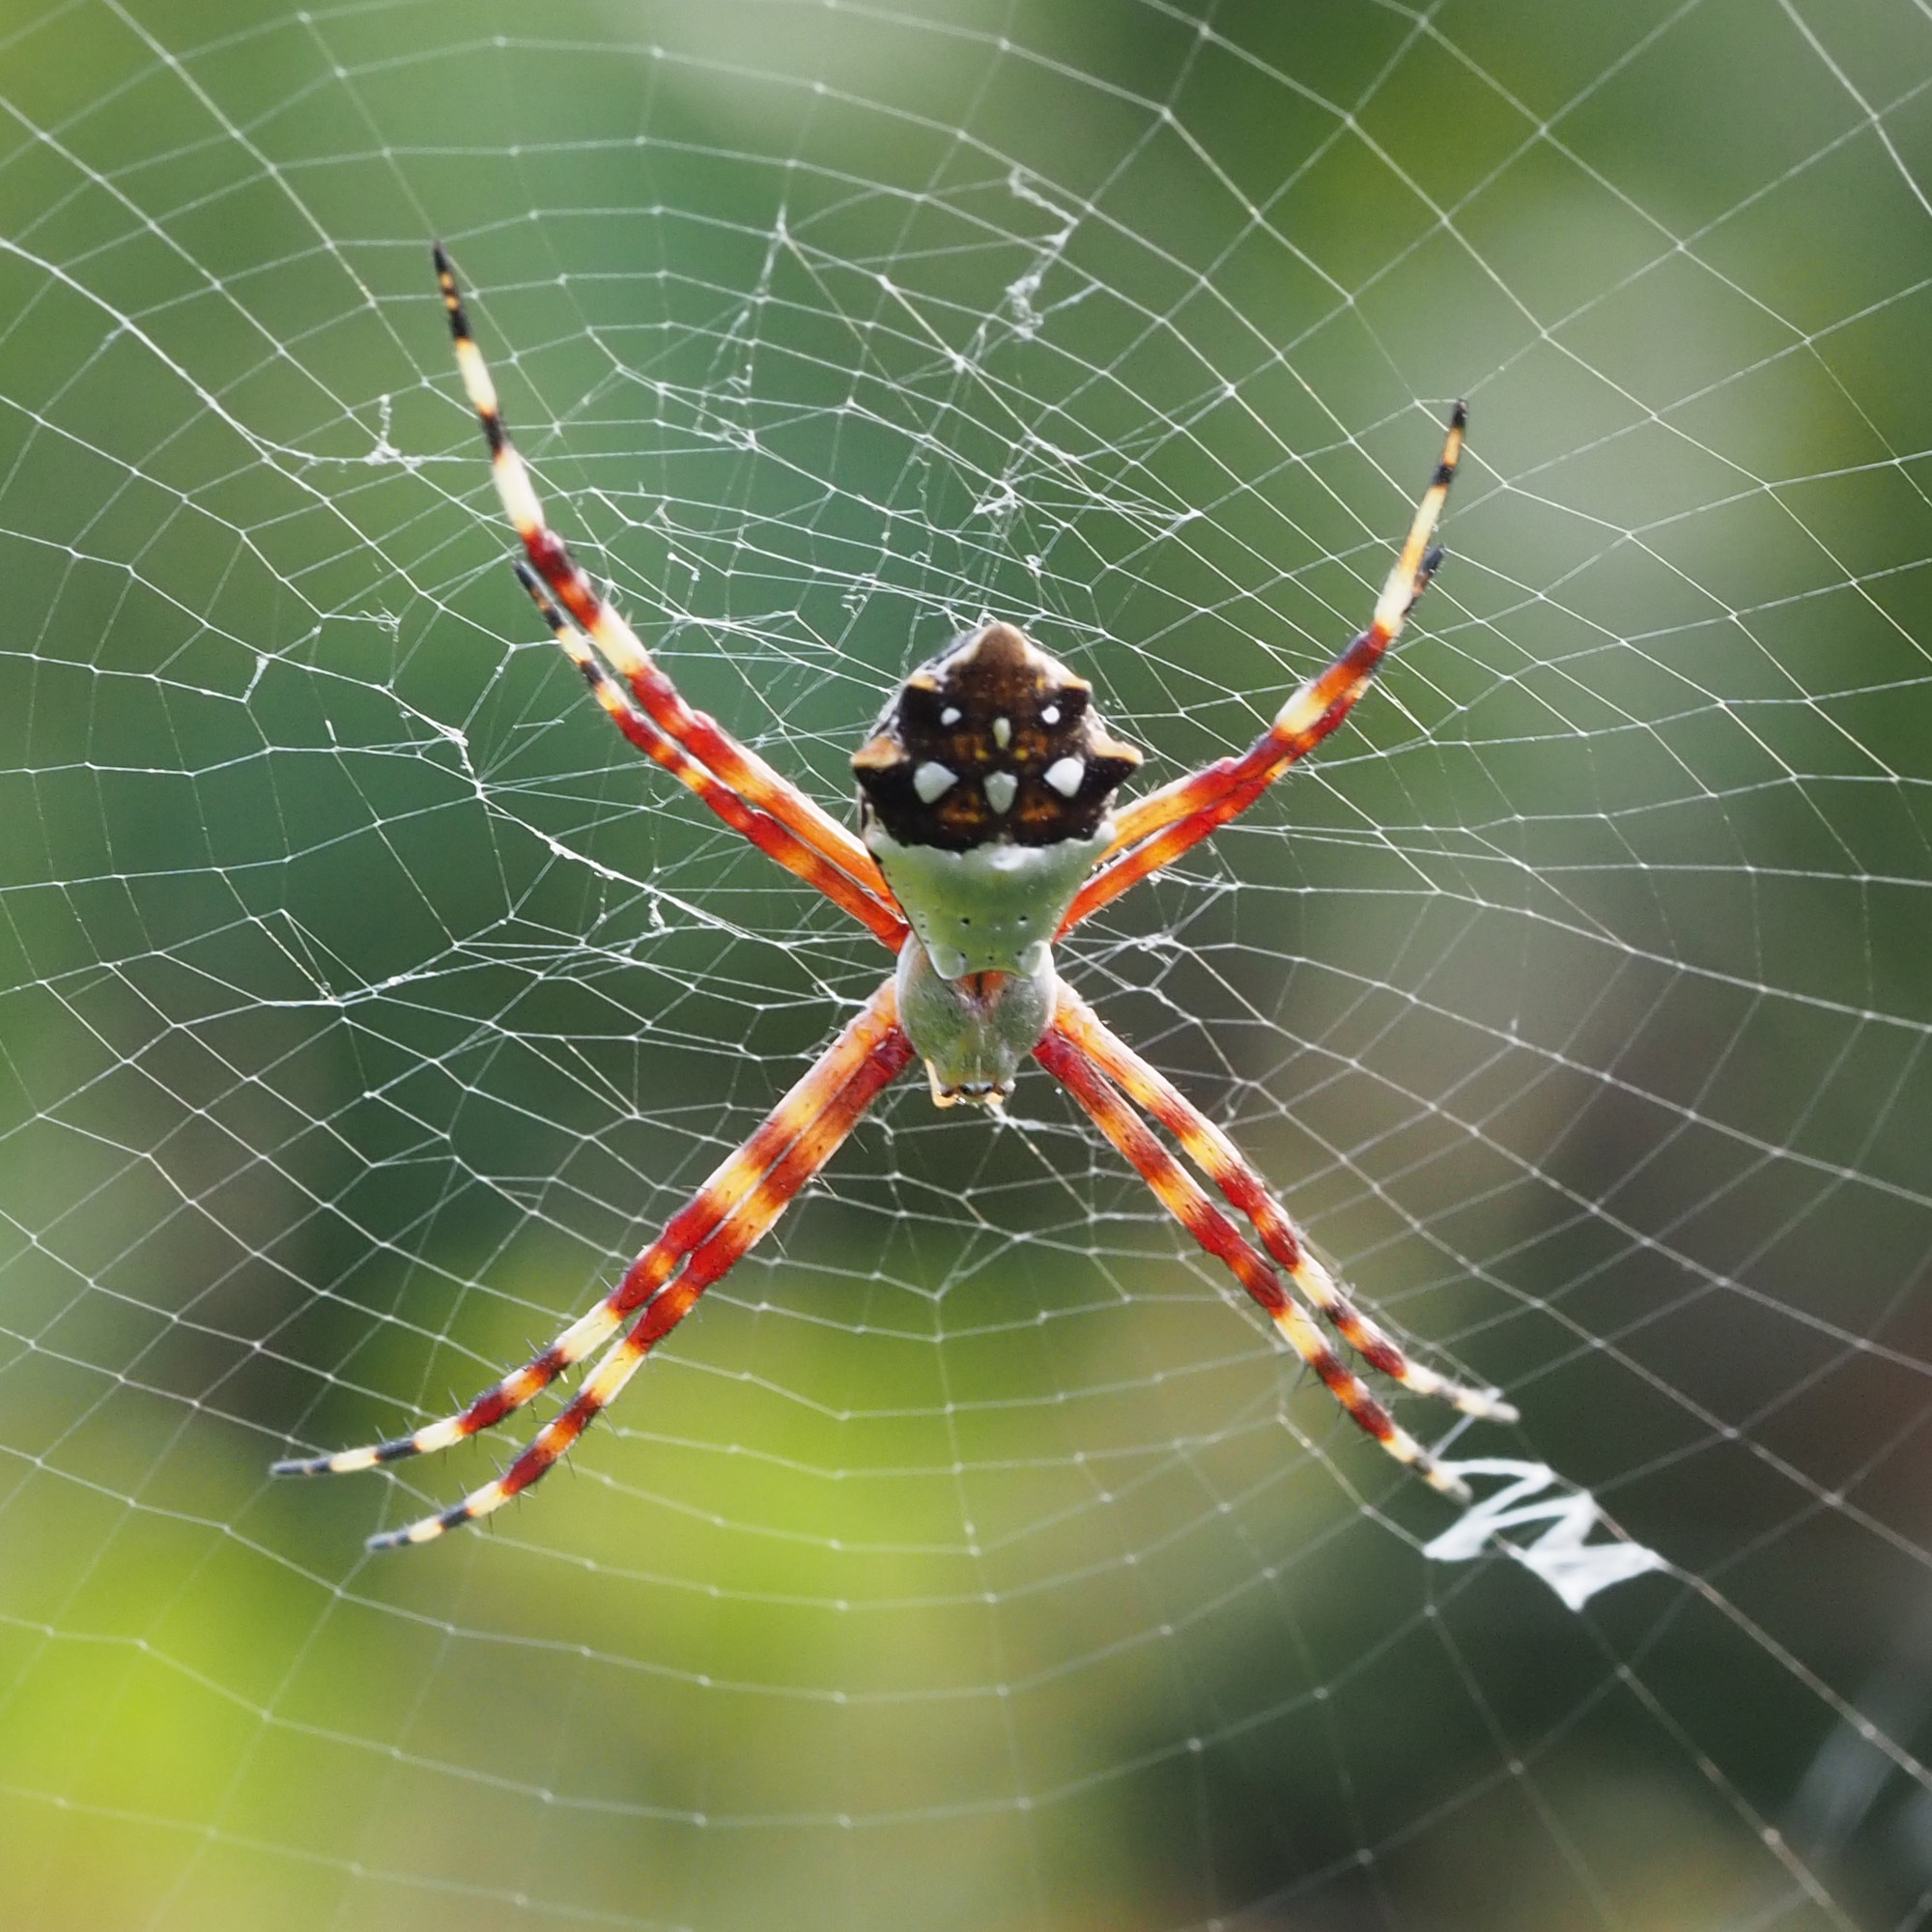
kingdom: Animalia
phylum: Arthropoda
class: Arachnida
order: Araneae
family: Araneidae
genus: Argiope
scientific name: Argiope argentata
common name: Orb weavers
